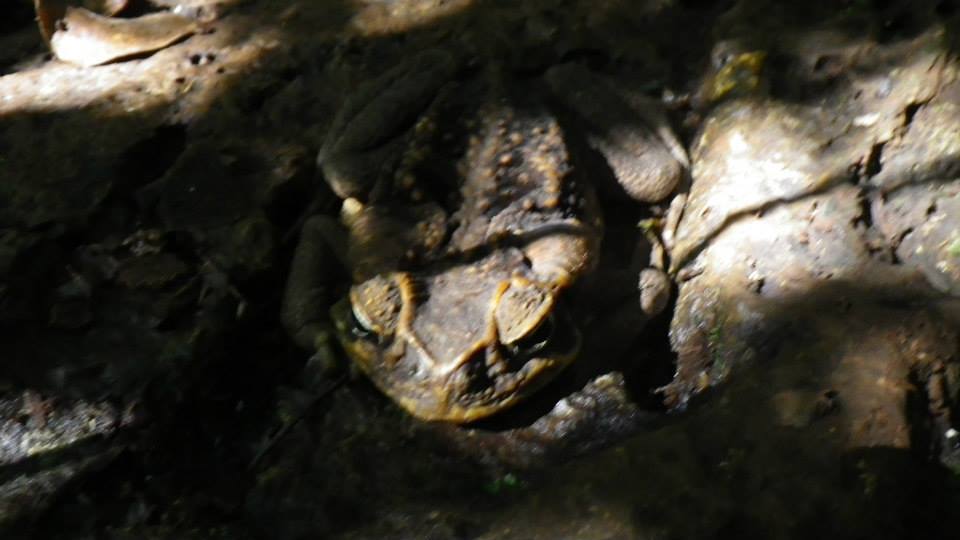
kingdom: Animalia
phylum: Chordata
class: Amphibia
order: Anura
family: Bufonidae
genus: Rhinella
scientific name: Rhinella marina
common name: Cane toad
